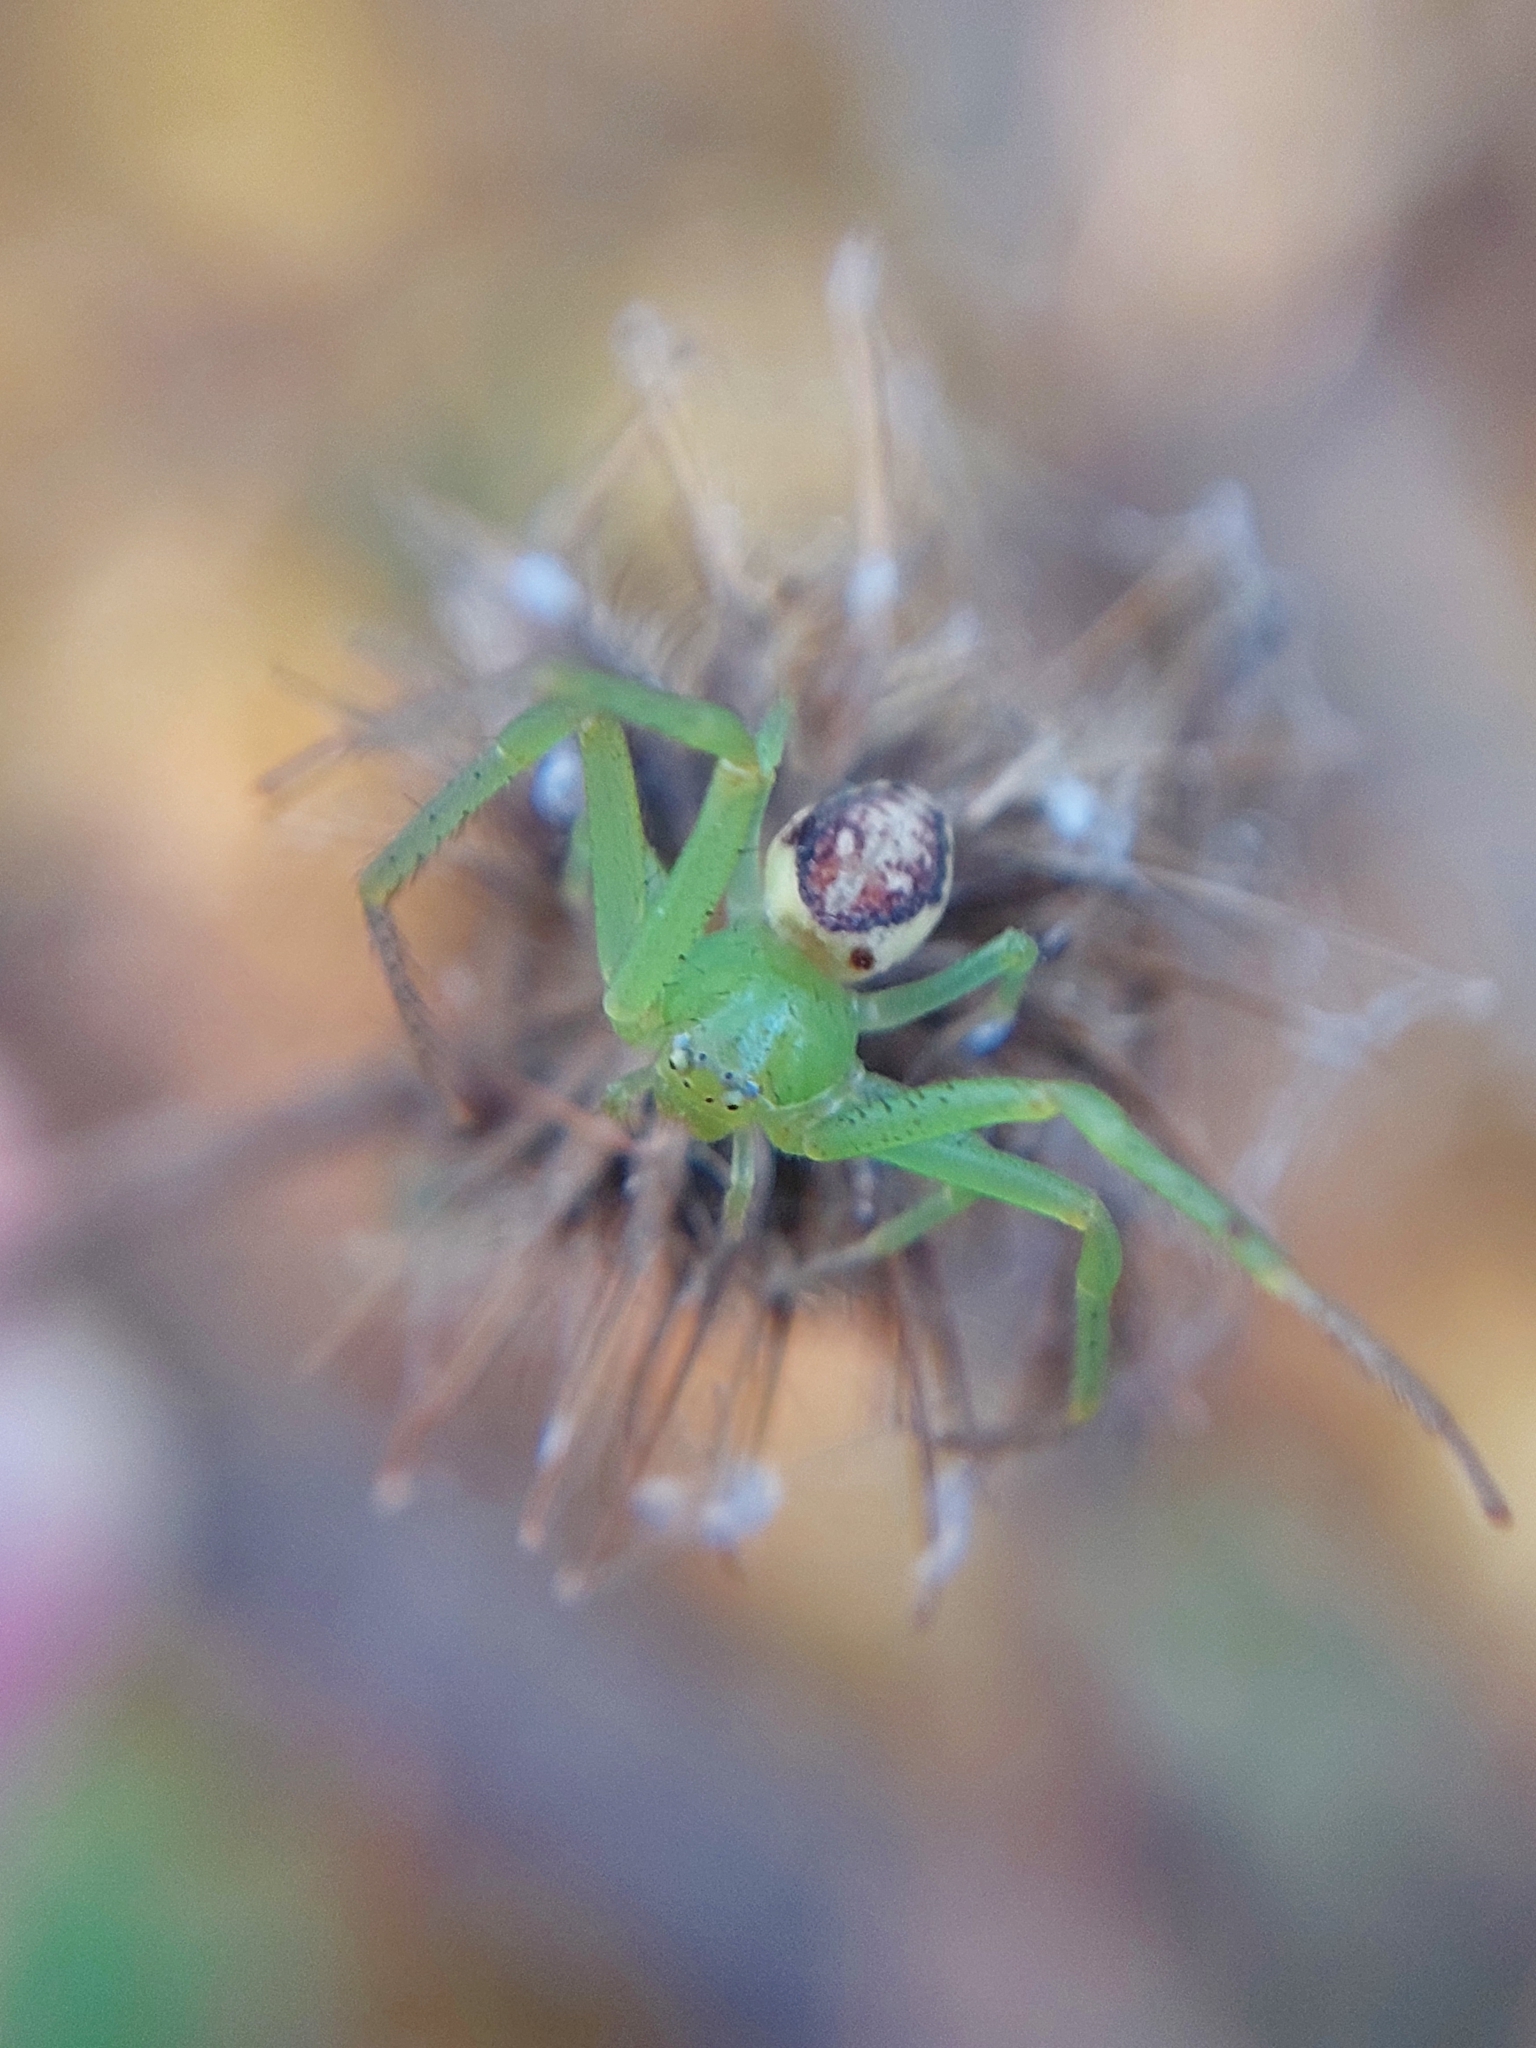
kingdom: Animalia
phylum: Arthropoda
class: Arachnida
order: Araneae
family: Thomisidae
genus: Diaea
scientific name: Diaea dorsata
